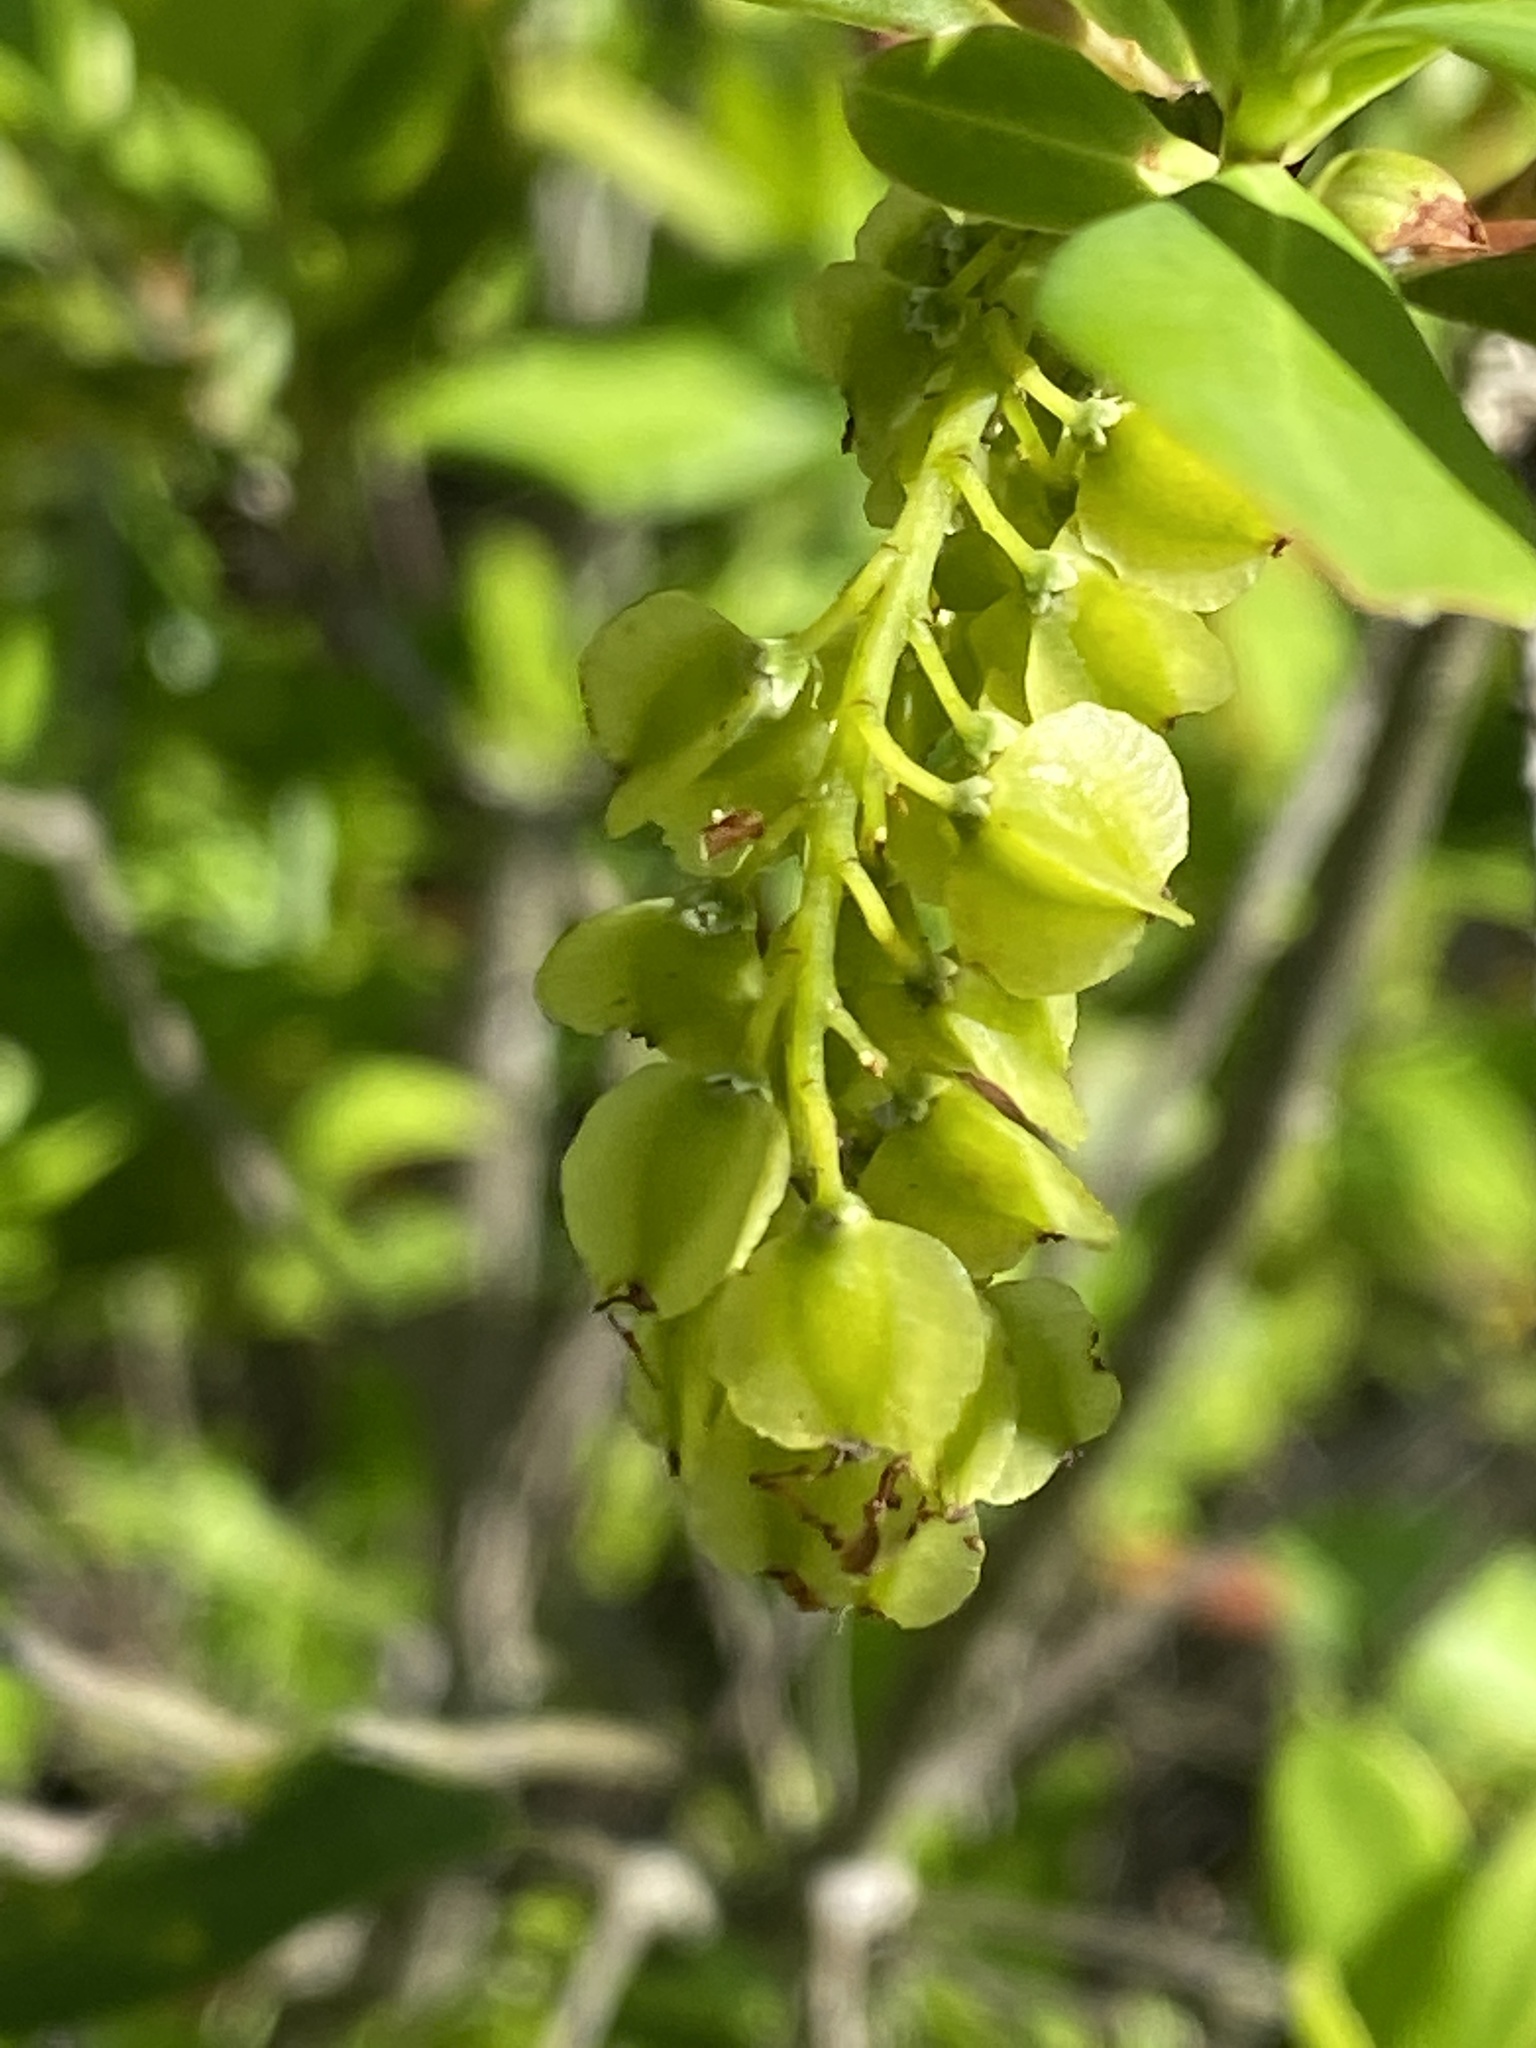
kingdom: Plantae
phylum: Tracheophyta
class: Magnoliopsida
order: Ericales
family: Cyrillaceae
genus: Cliftonia
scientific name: Cliftonia monophylla
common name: Titi
